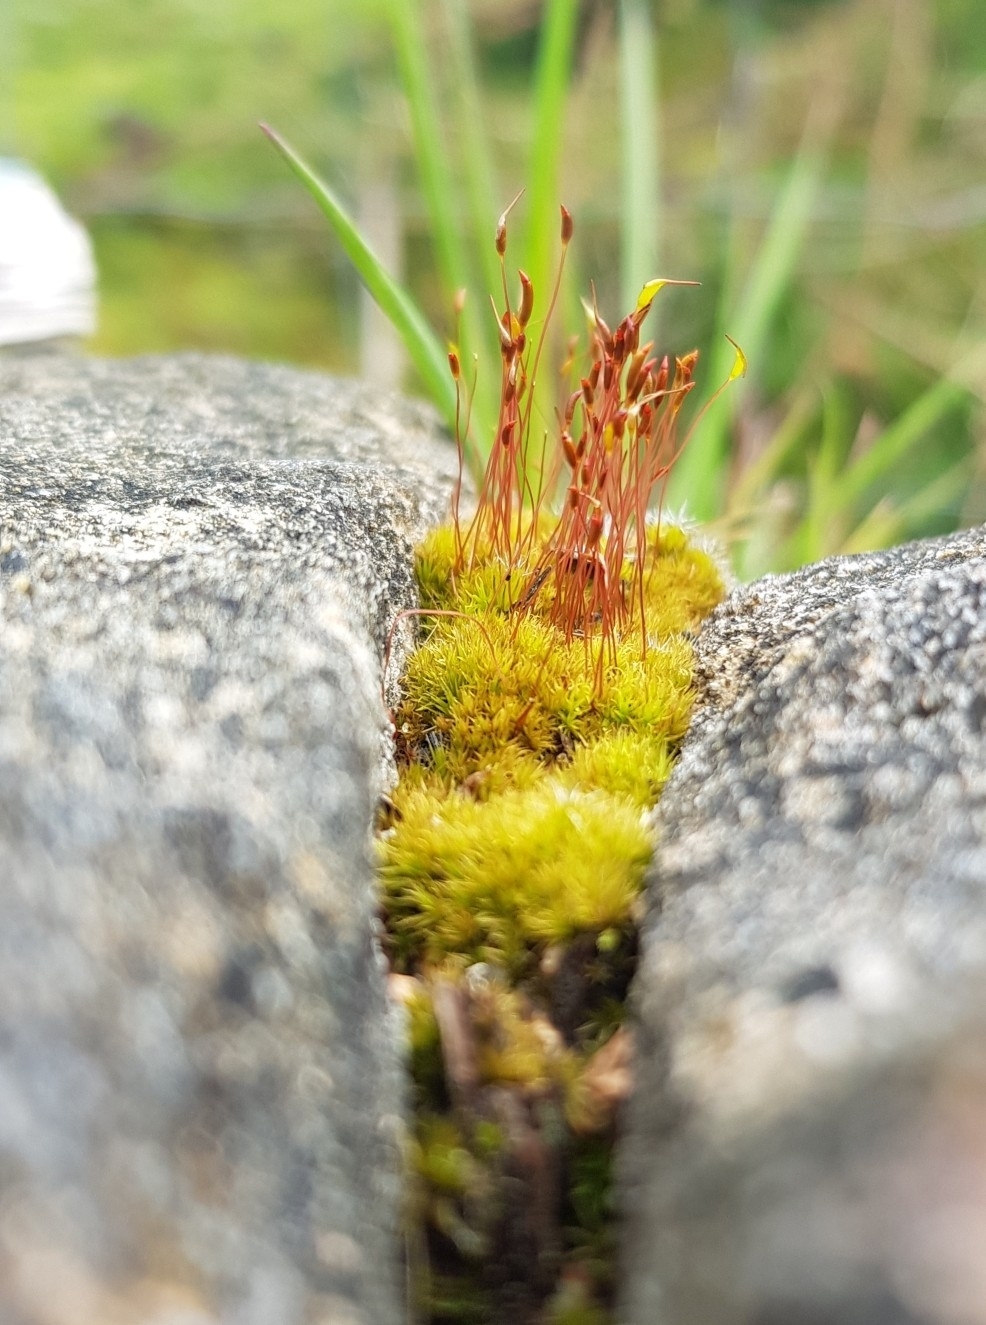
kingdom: Plantae
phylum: Bryophyta
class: Bryopsida
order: Dicranales
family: Ditrichaceae
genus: Ceratodon
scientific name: Ceratodon purpureus
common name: Redshank
